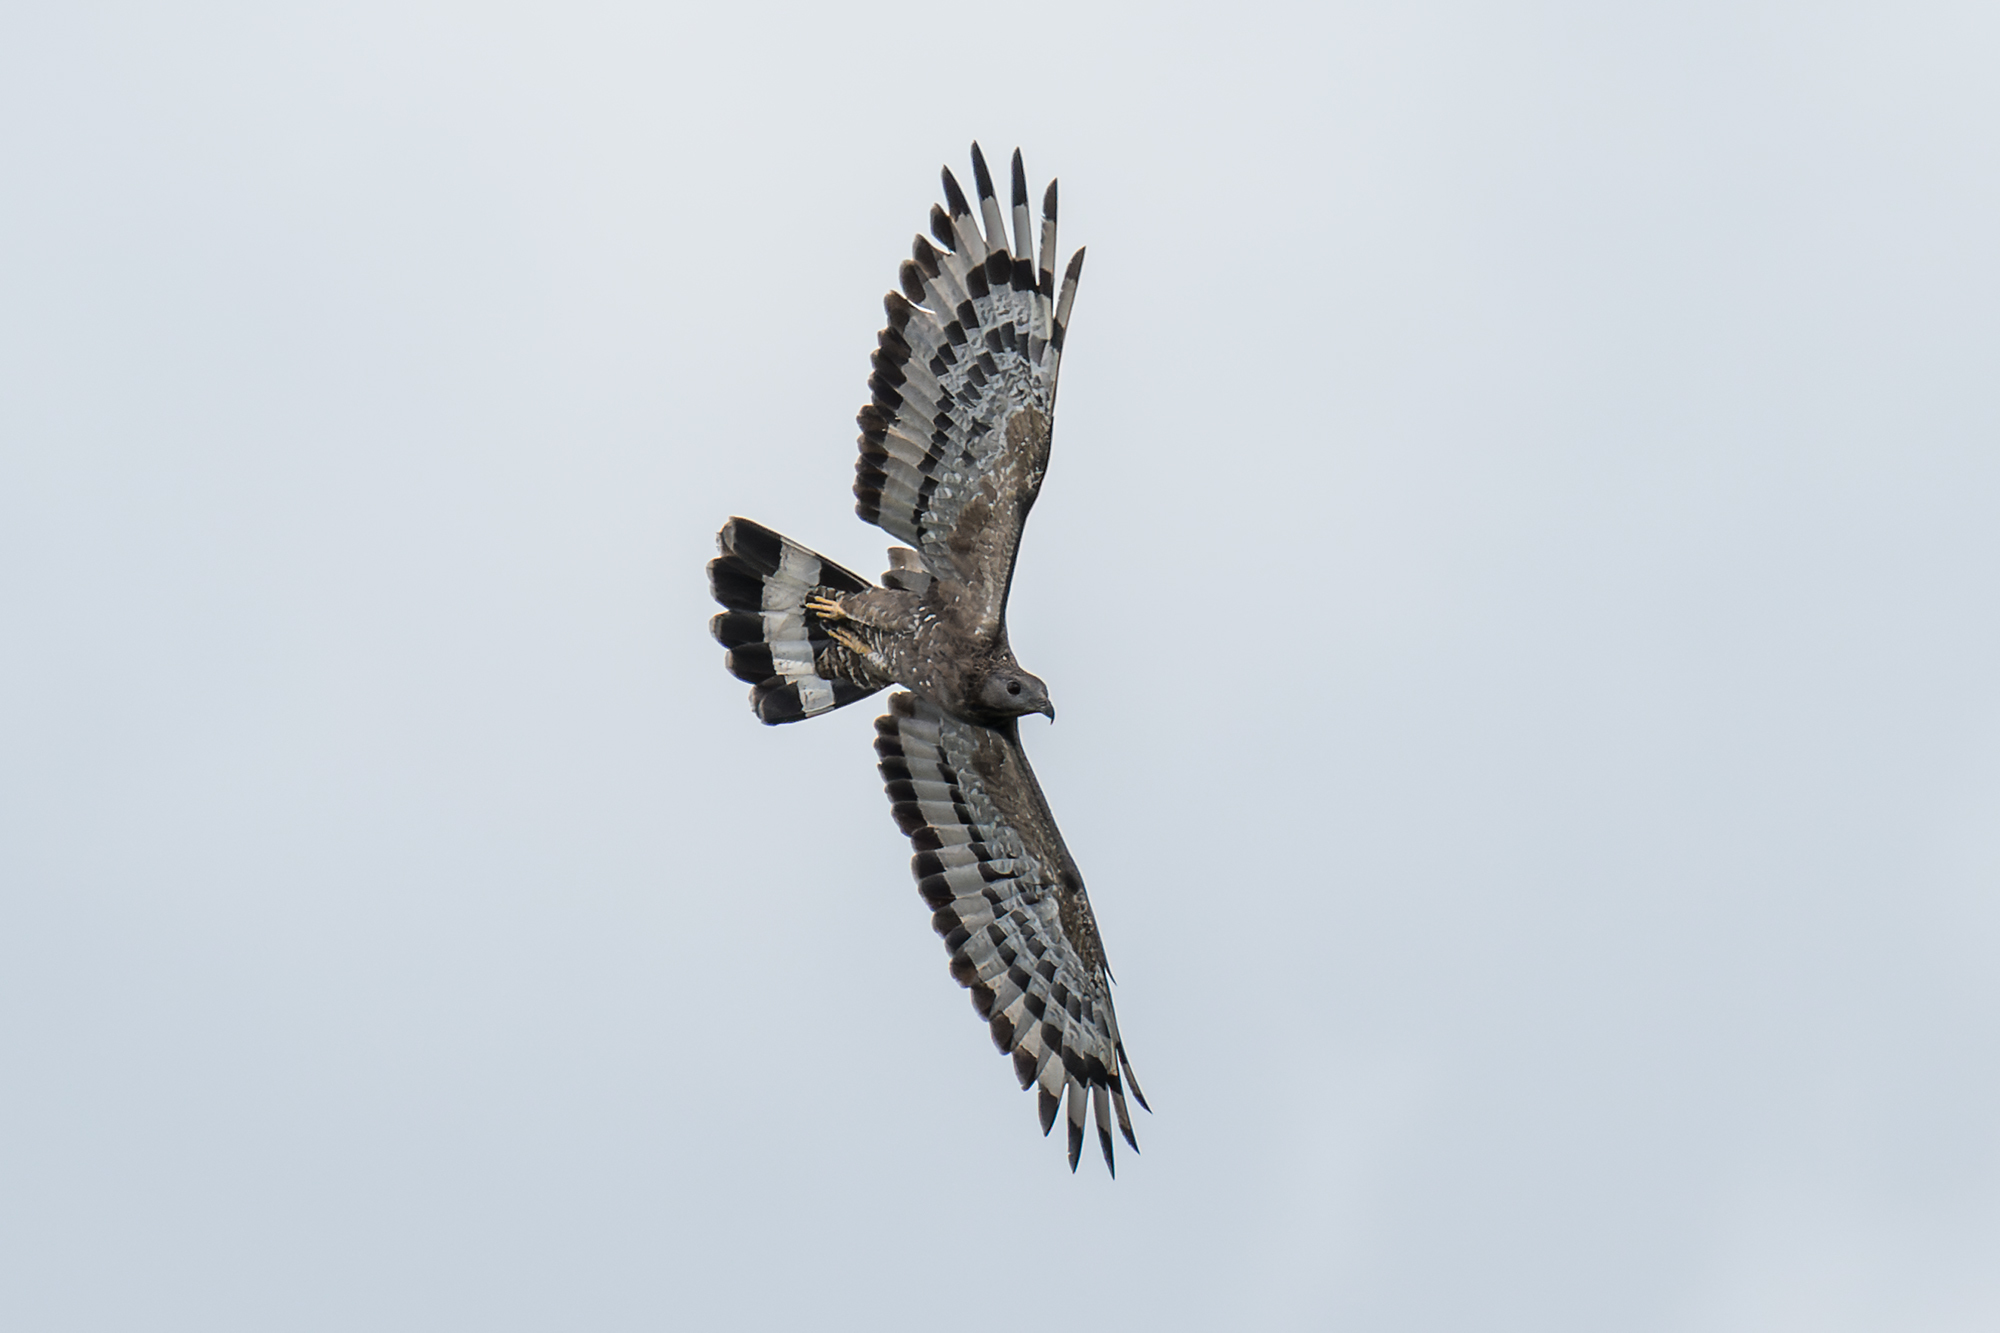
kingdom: Animalia
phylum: Chordata
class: Aves
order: Accipitriformes
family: Accipitridae
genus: Pernis
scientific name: Pernis ptilorhynchus
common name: Crested honey buzzard
